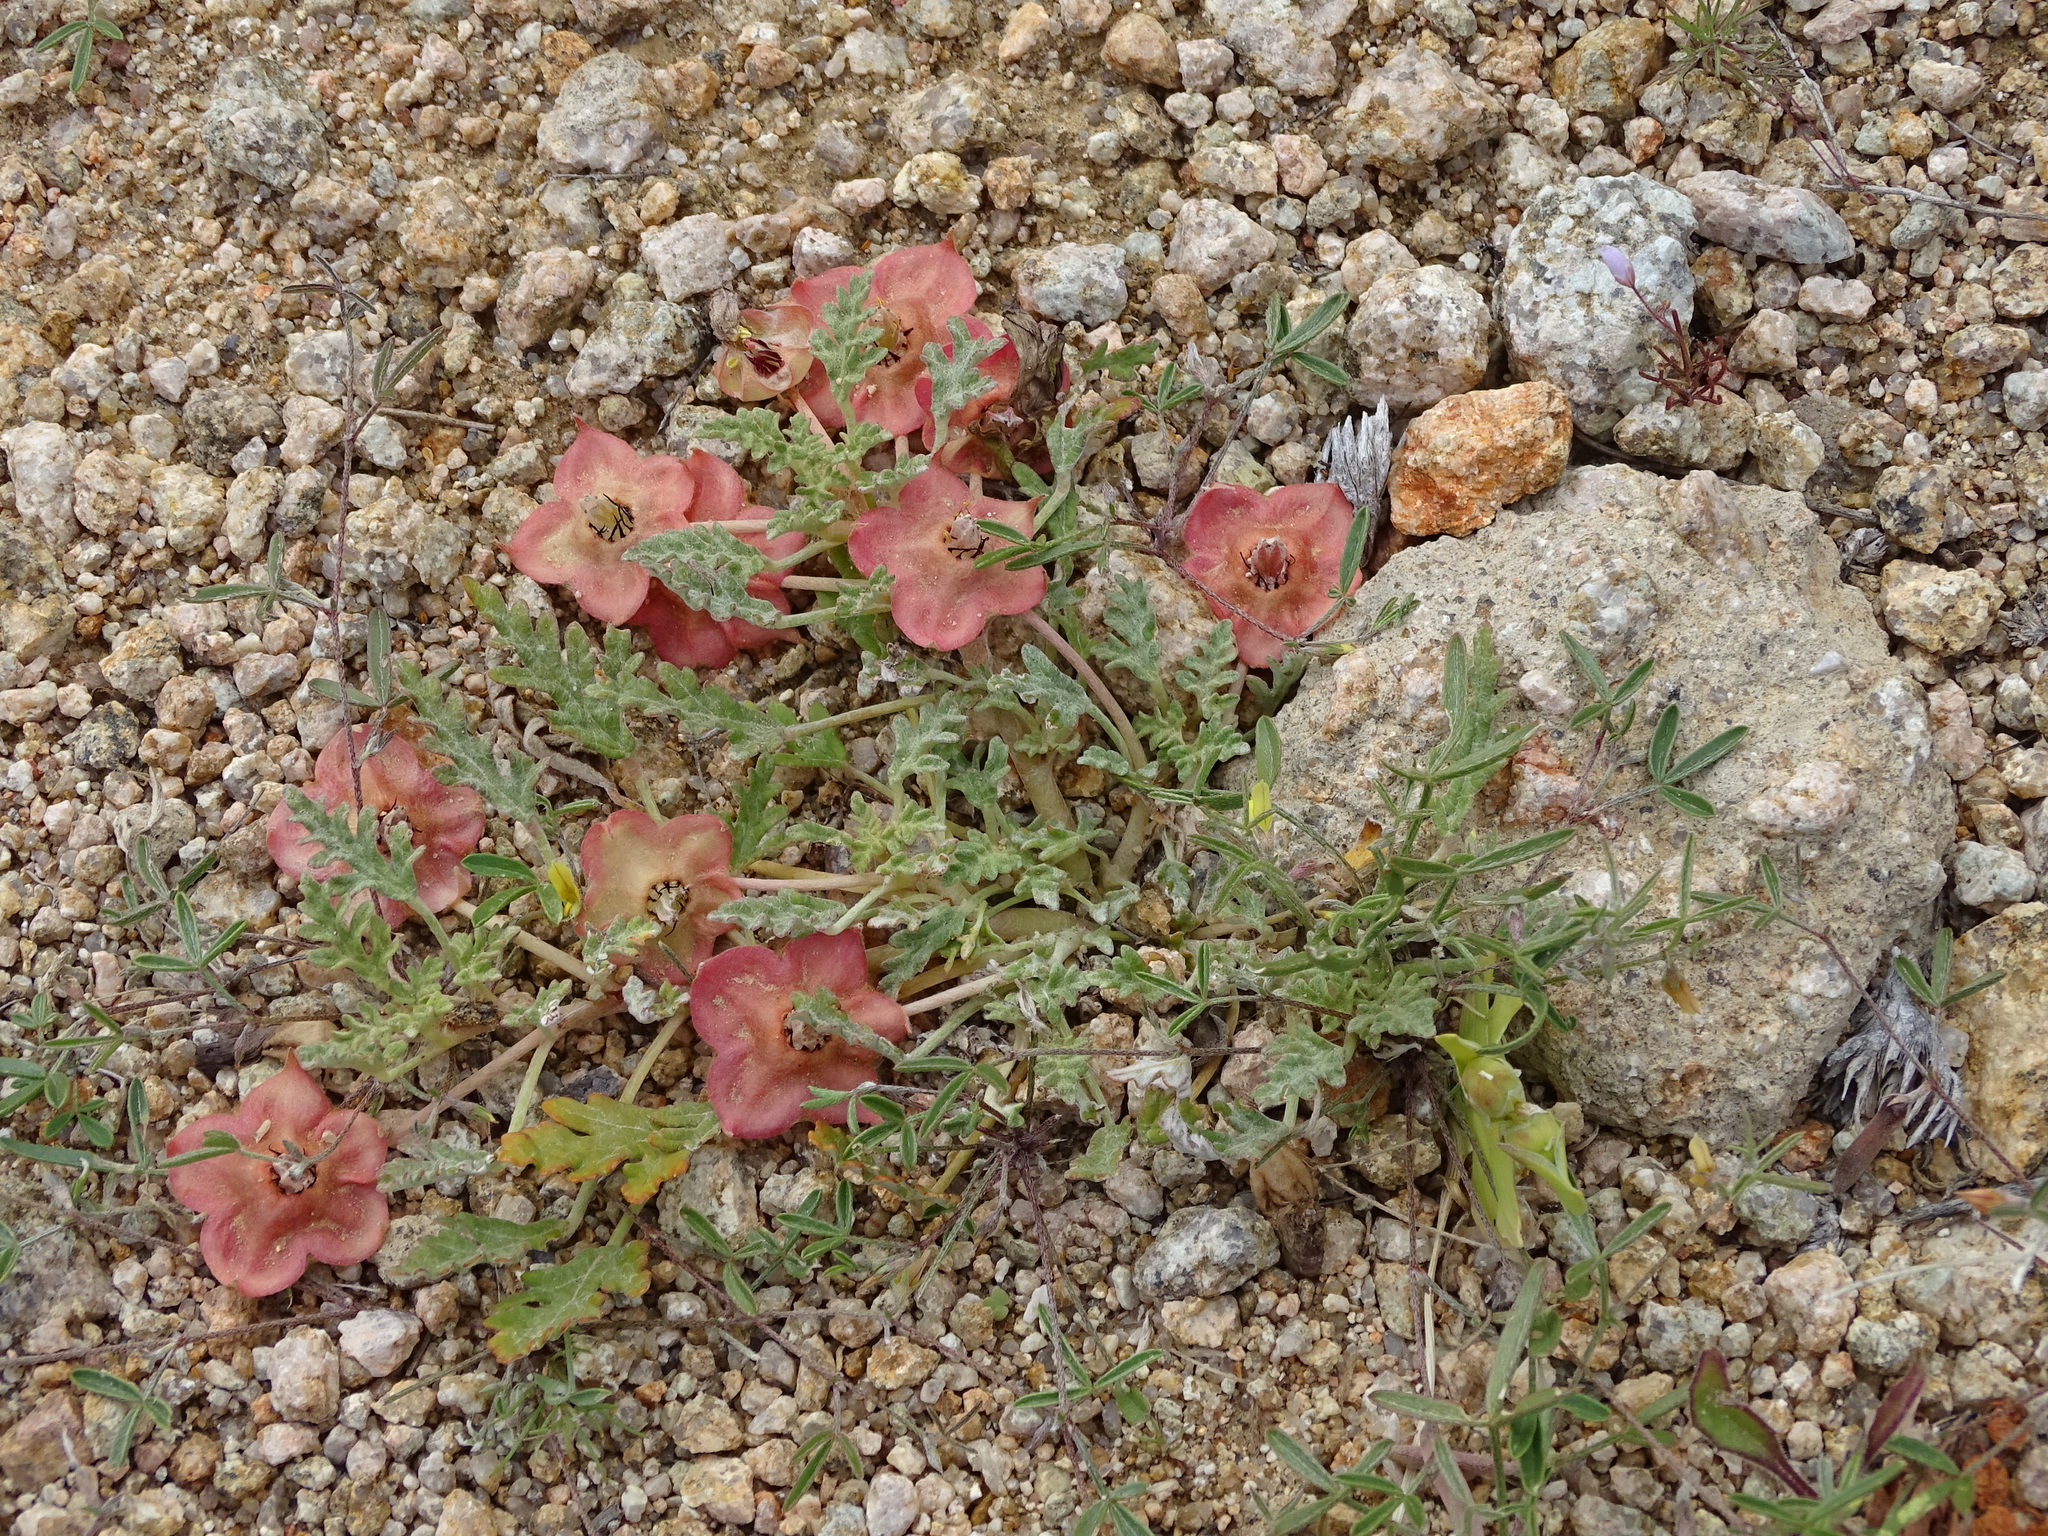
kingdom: Plantae
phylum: Tracheophyta
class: Magnoliopsida
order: Malvales
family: Neuradaceae
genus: Grielum
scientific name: Grielum humifusum
